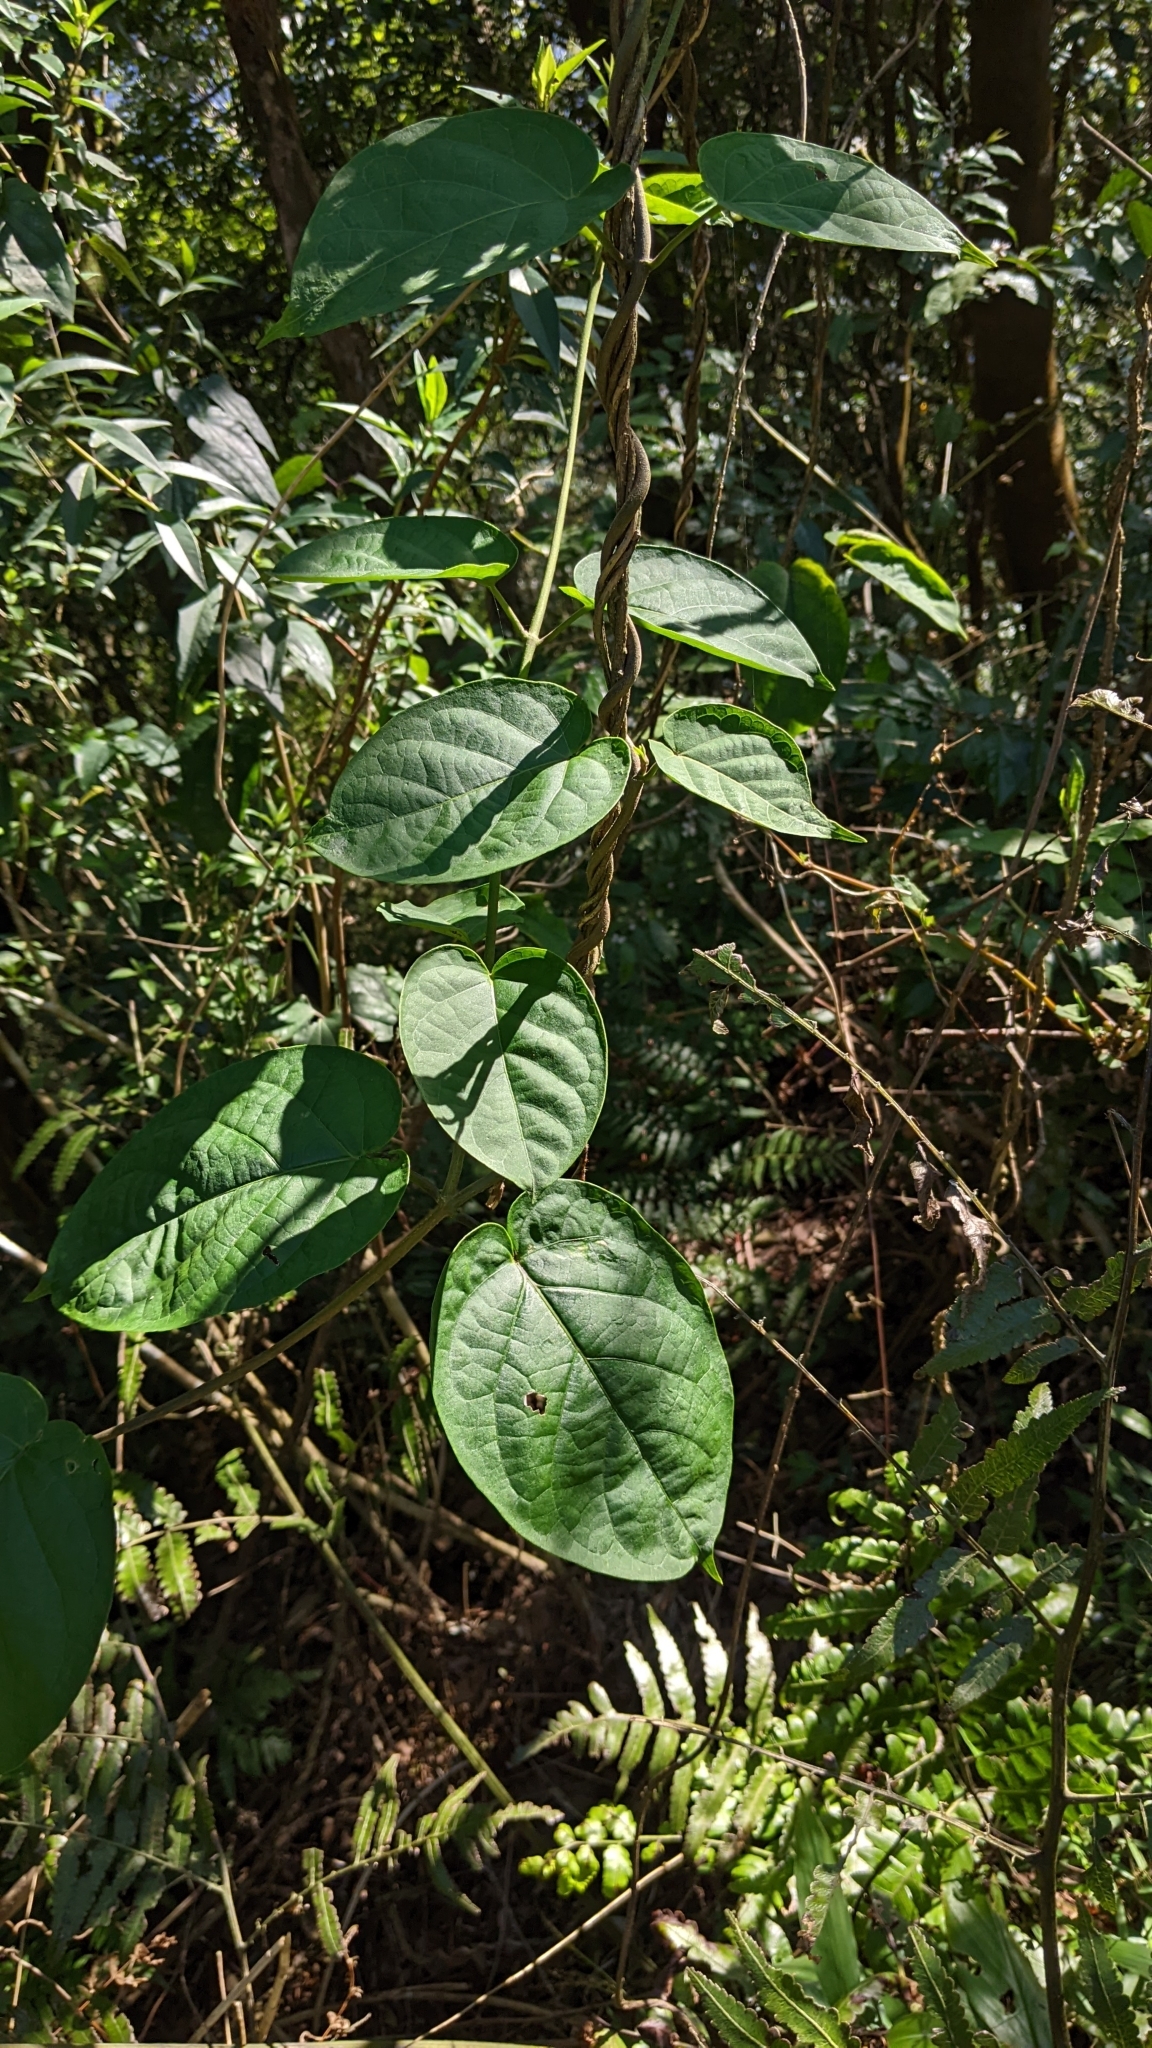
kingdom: Plantae
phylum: Tracheophyta
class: Magnoliopsida
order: Gentianales
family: Apocynaceae
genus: Jasminanthes
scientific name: Jasminanthes mucronata
